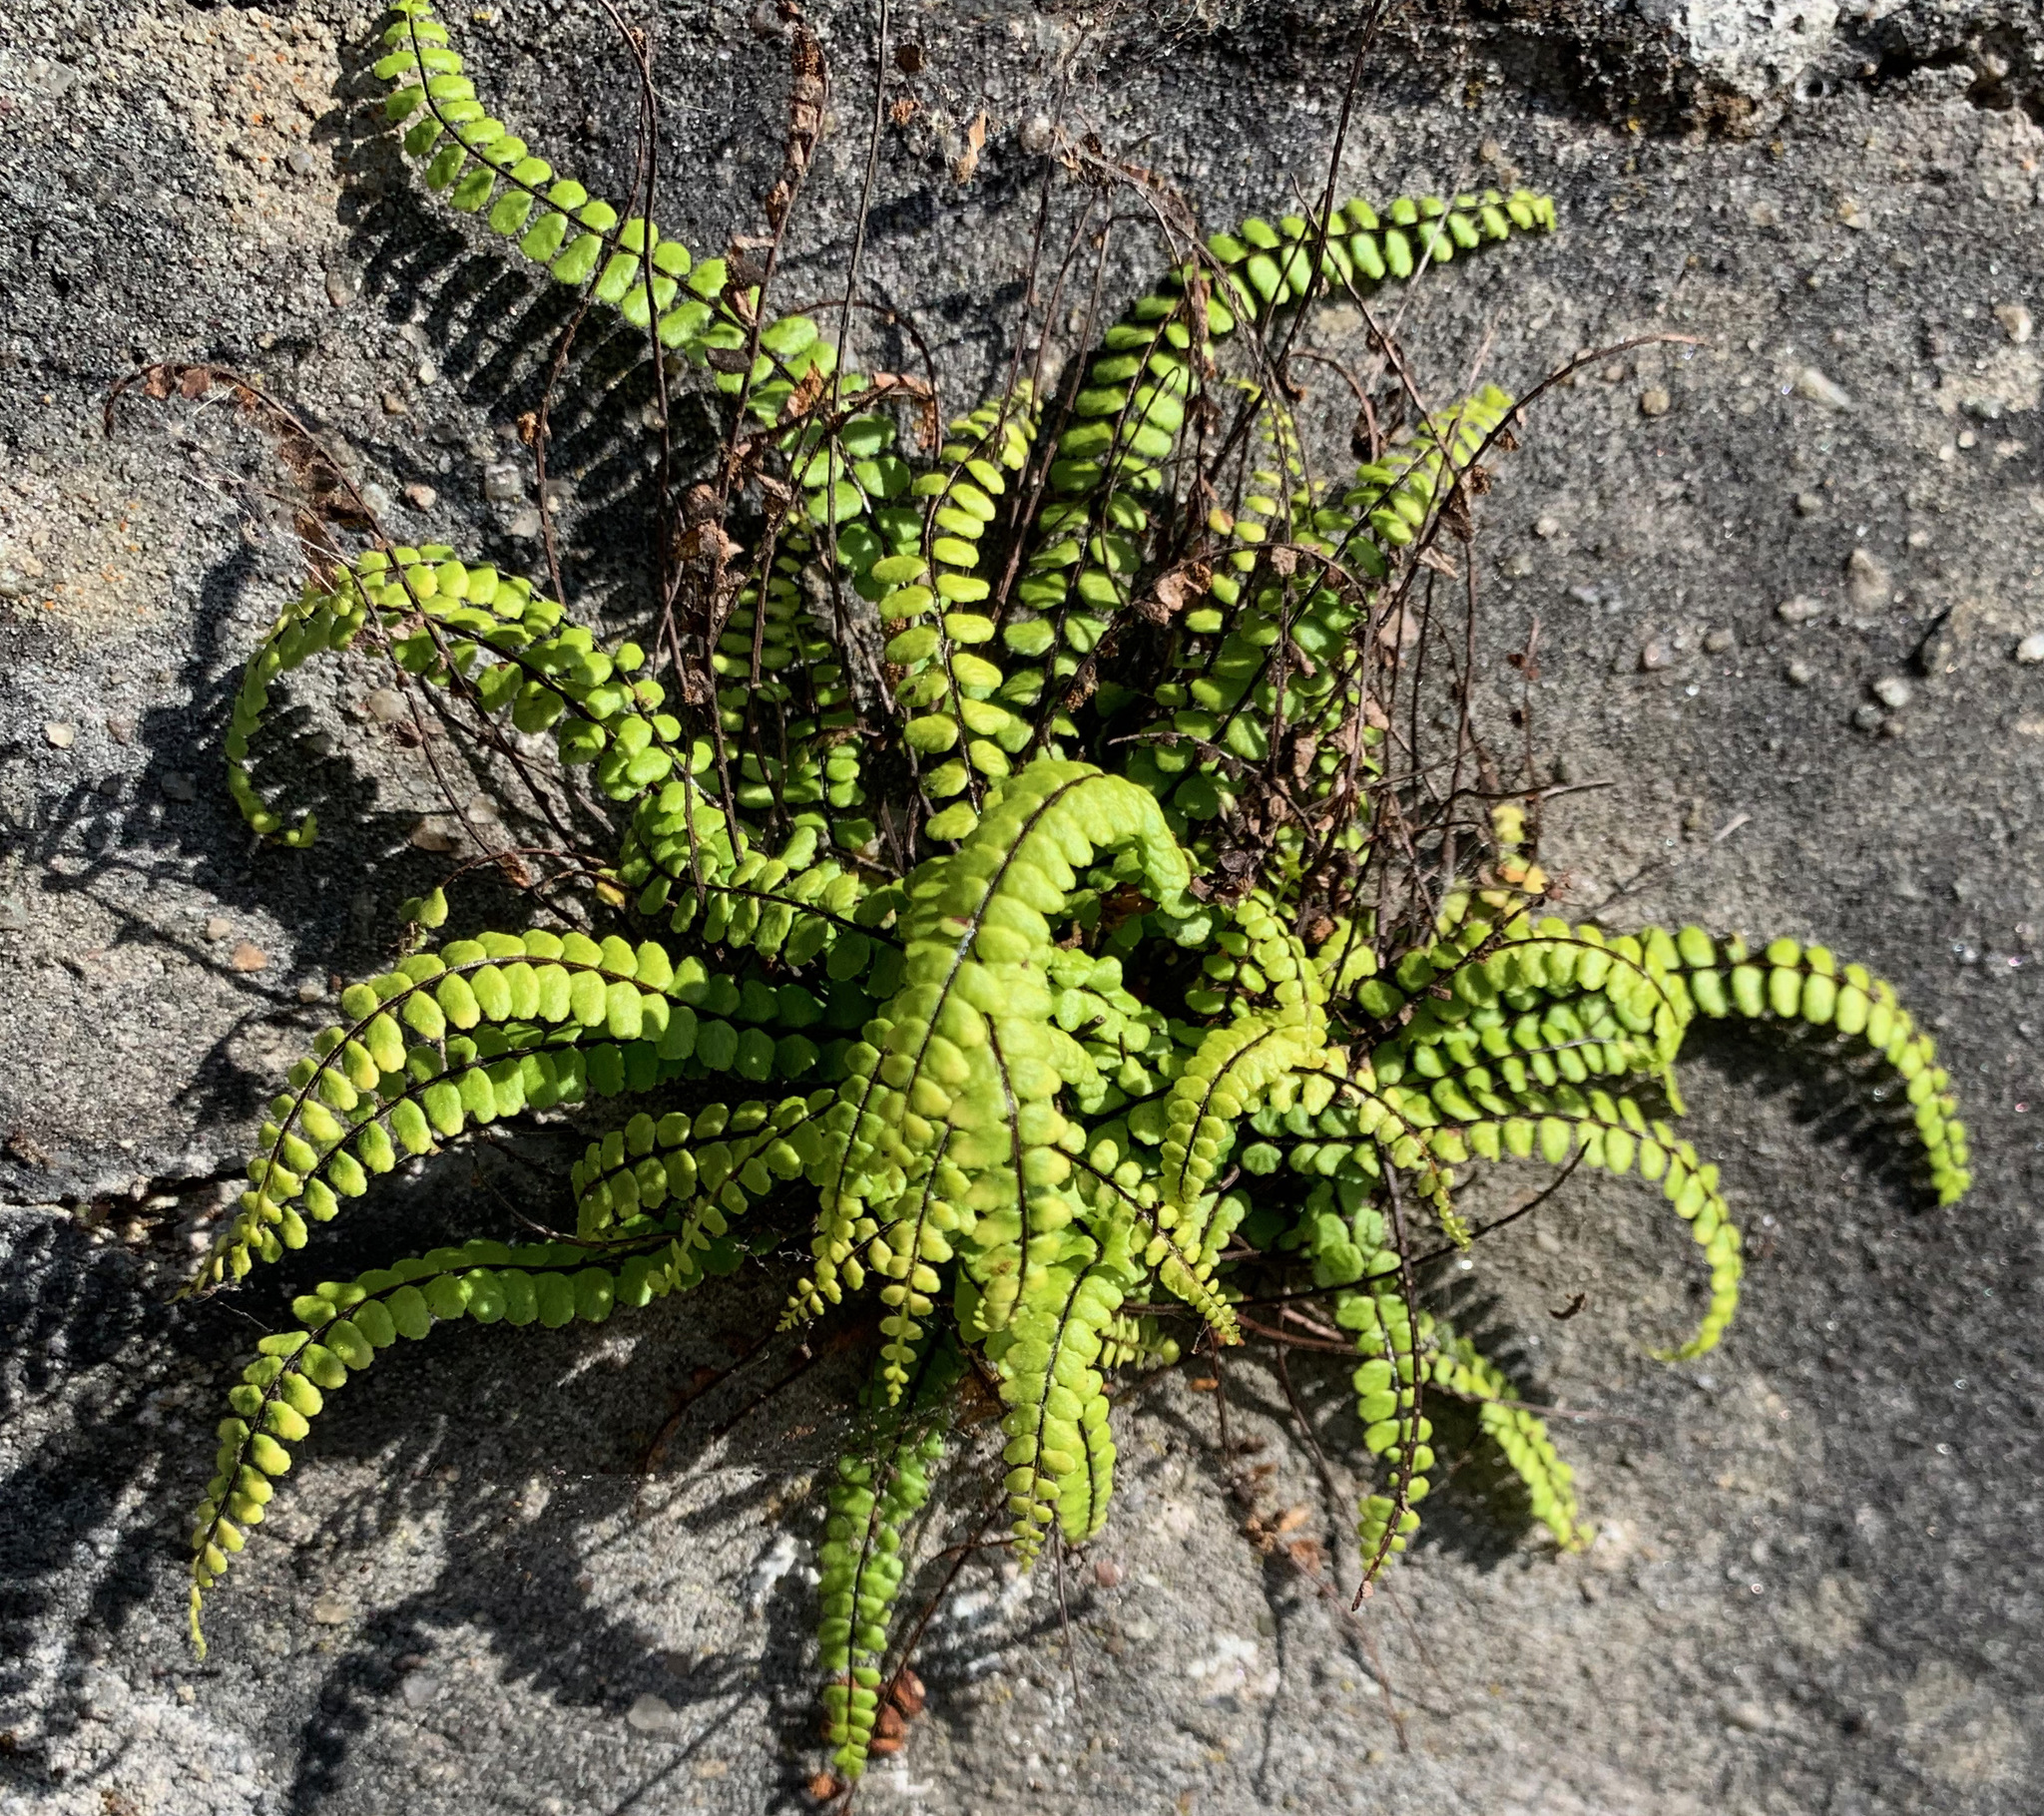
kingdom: Plantae
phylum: Tracheophyta
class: Polypodiopsida
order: Polypodiales
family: Aspleniaceae
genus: Asplenium
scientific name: Asplenium trichomanes
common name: Maidenhair spleenwort
